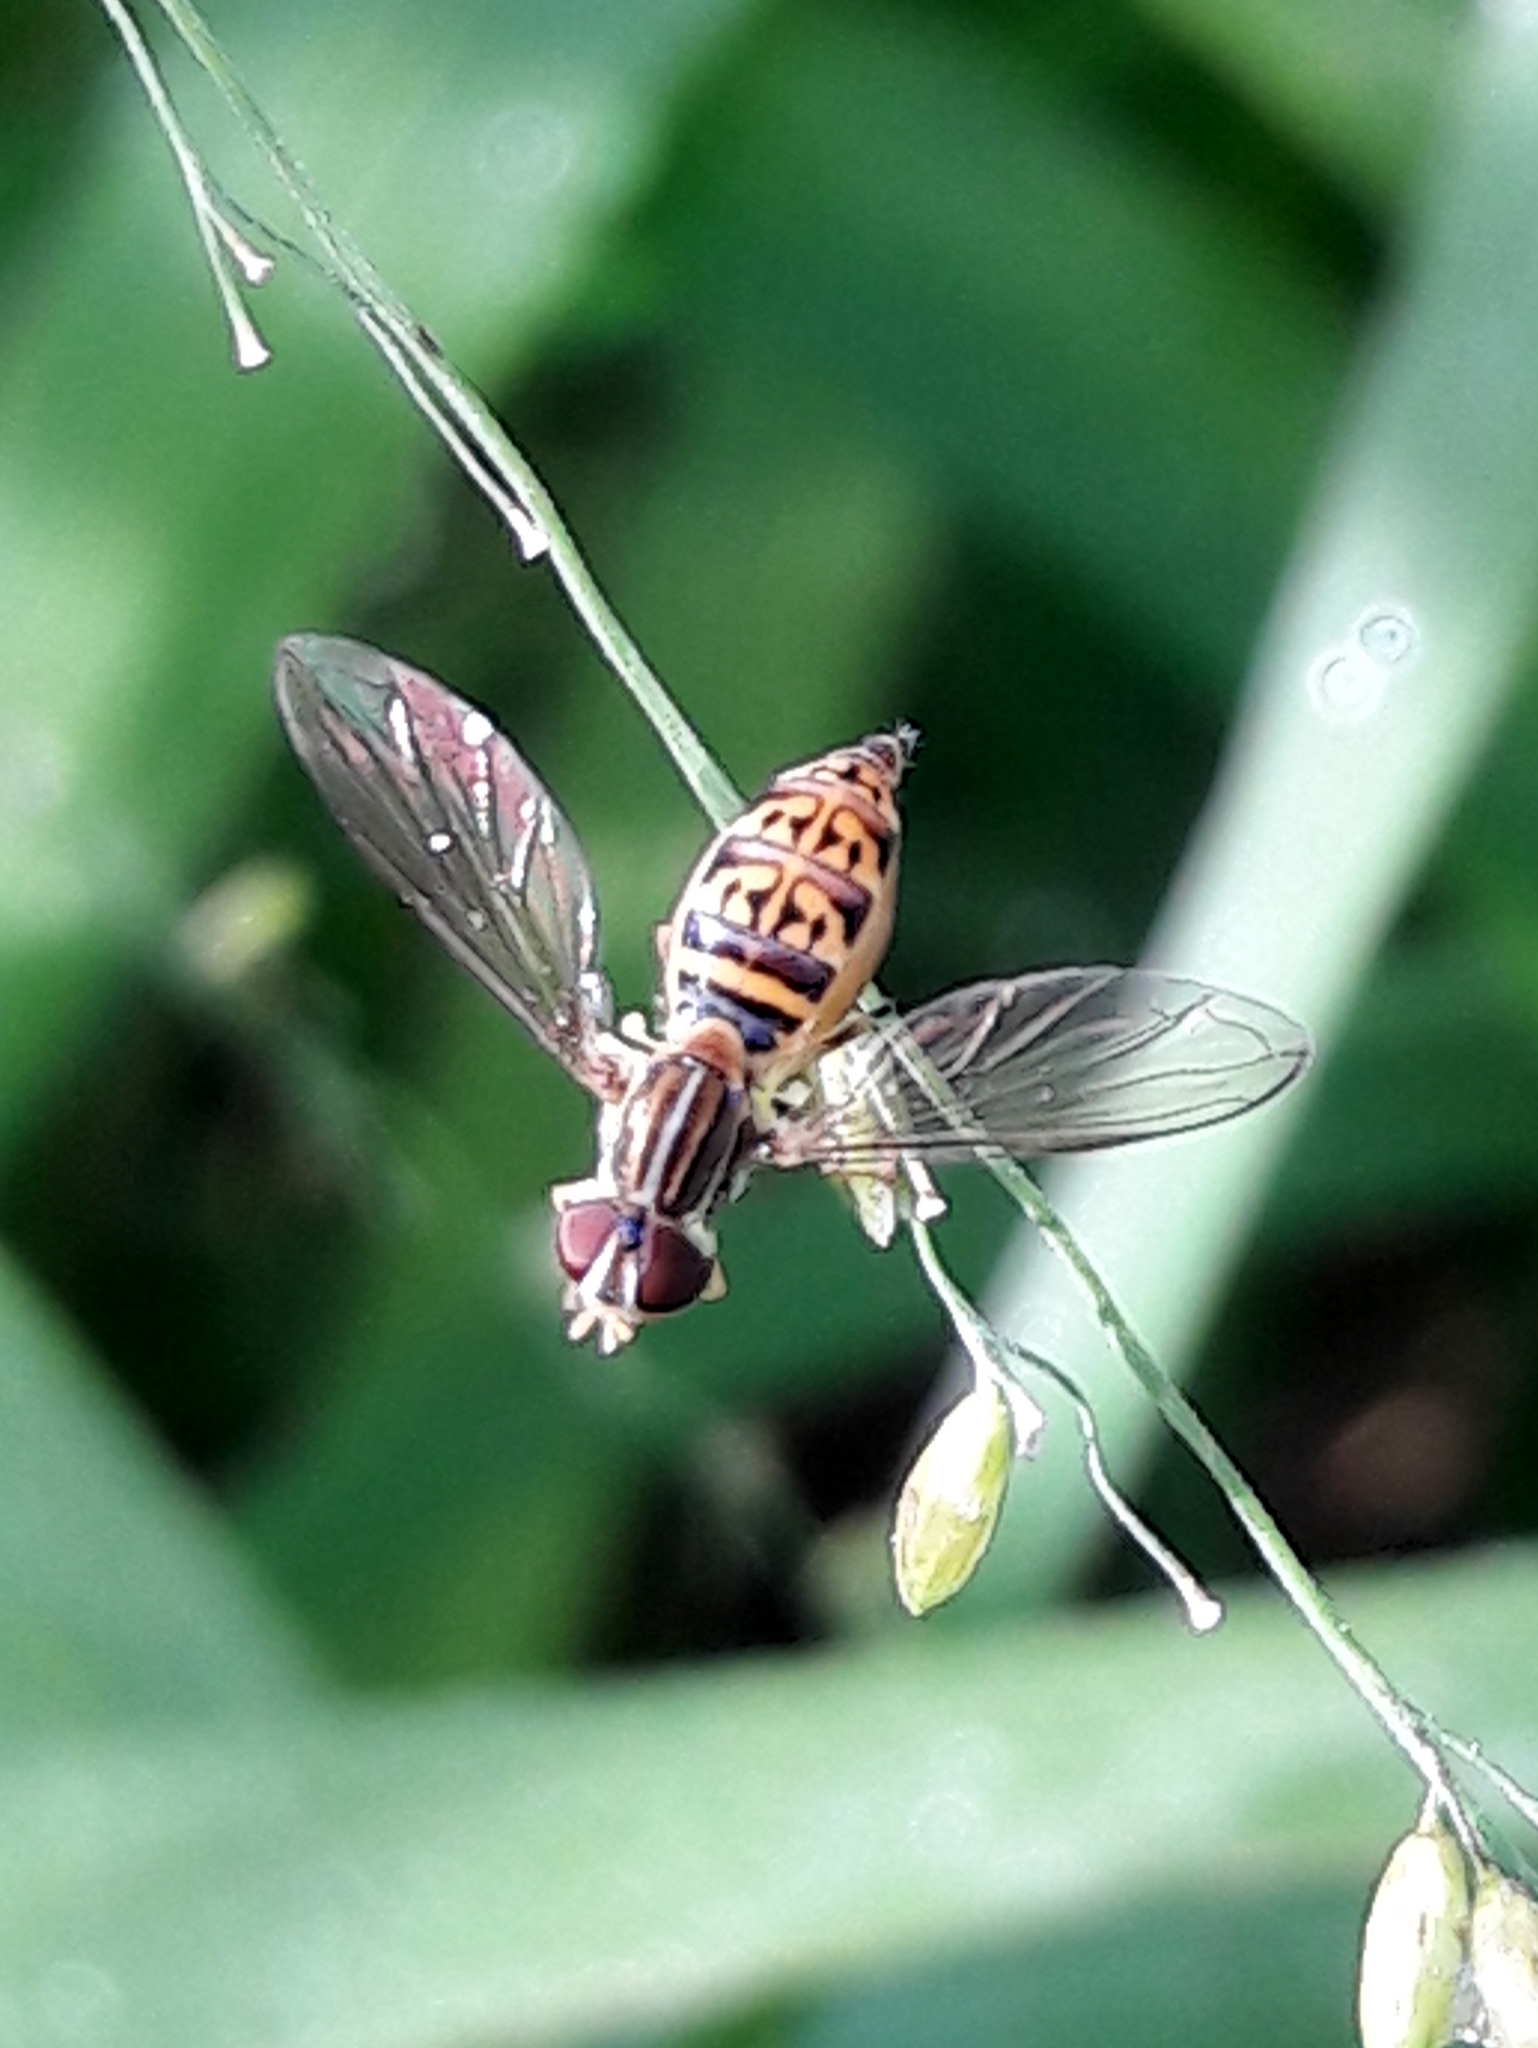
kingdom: Animalia
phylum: Arthropoda
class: Insecta
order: Diptera
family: Syrphidae
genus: Toxomerus
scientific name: Toxomerus
